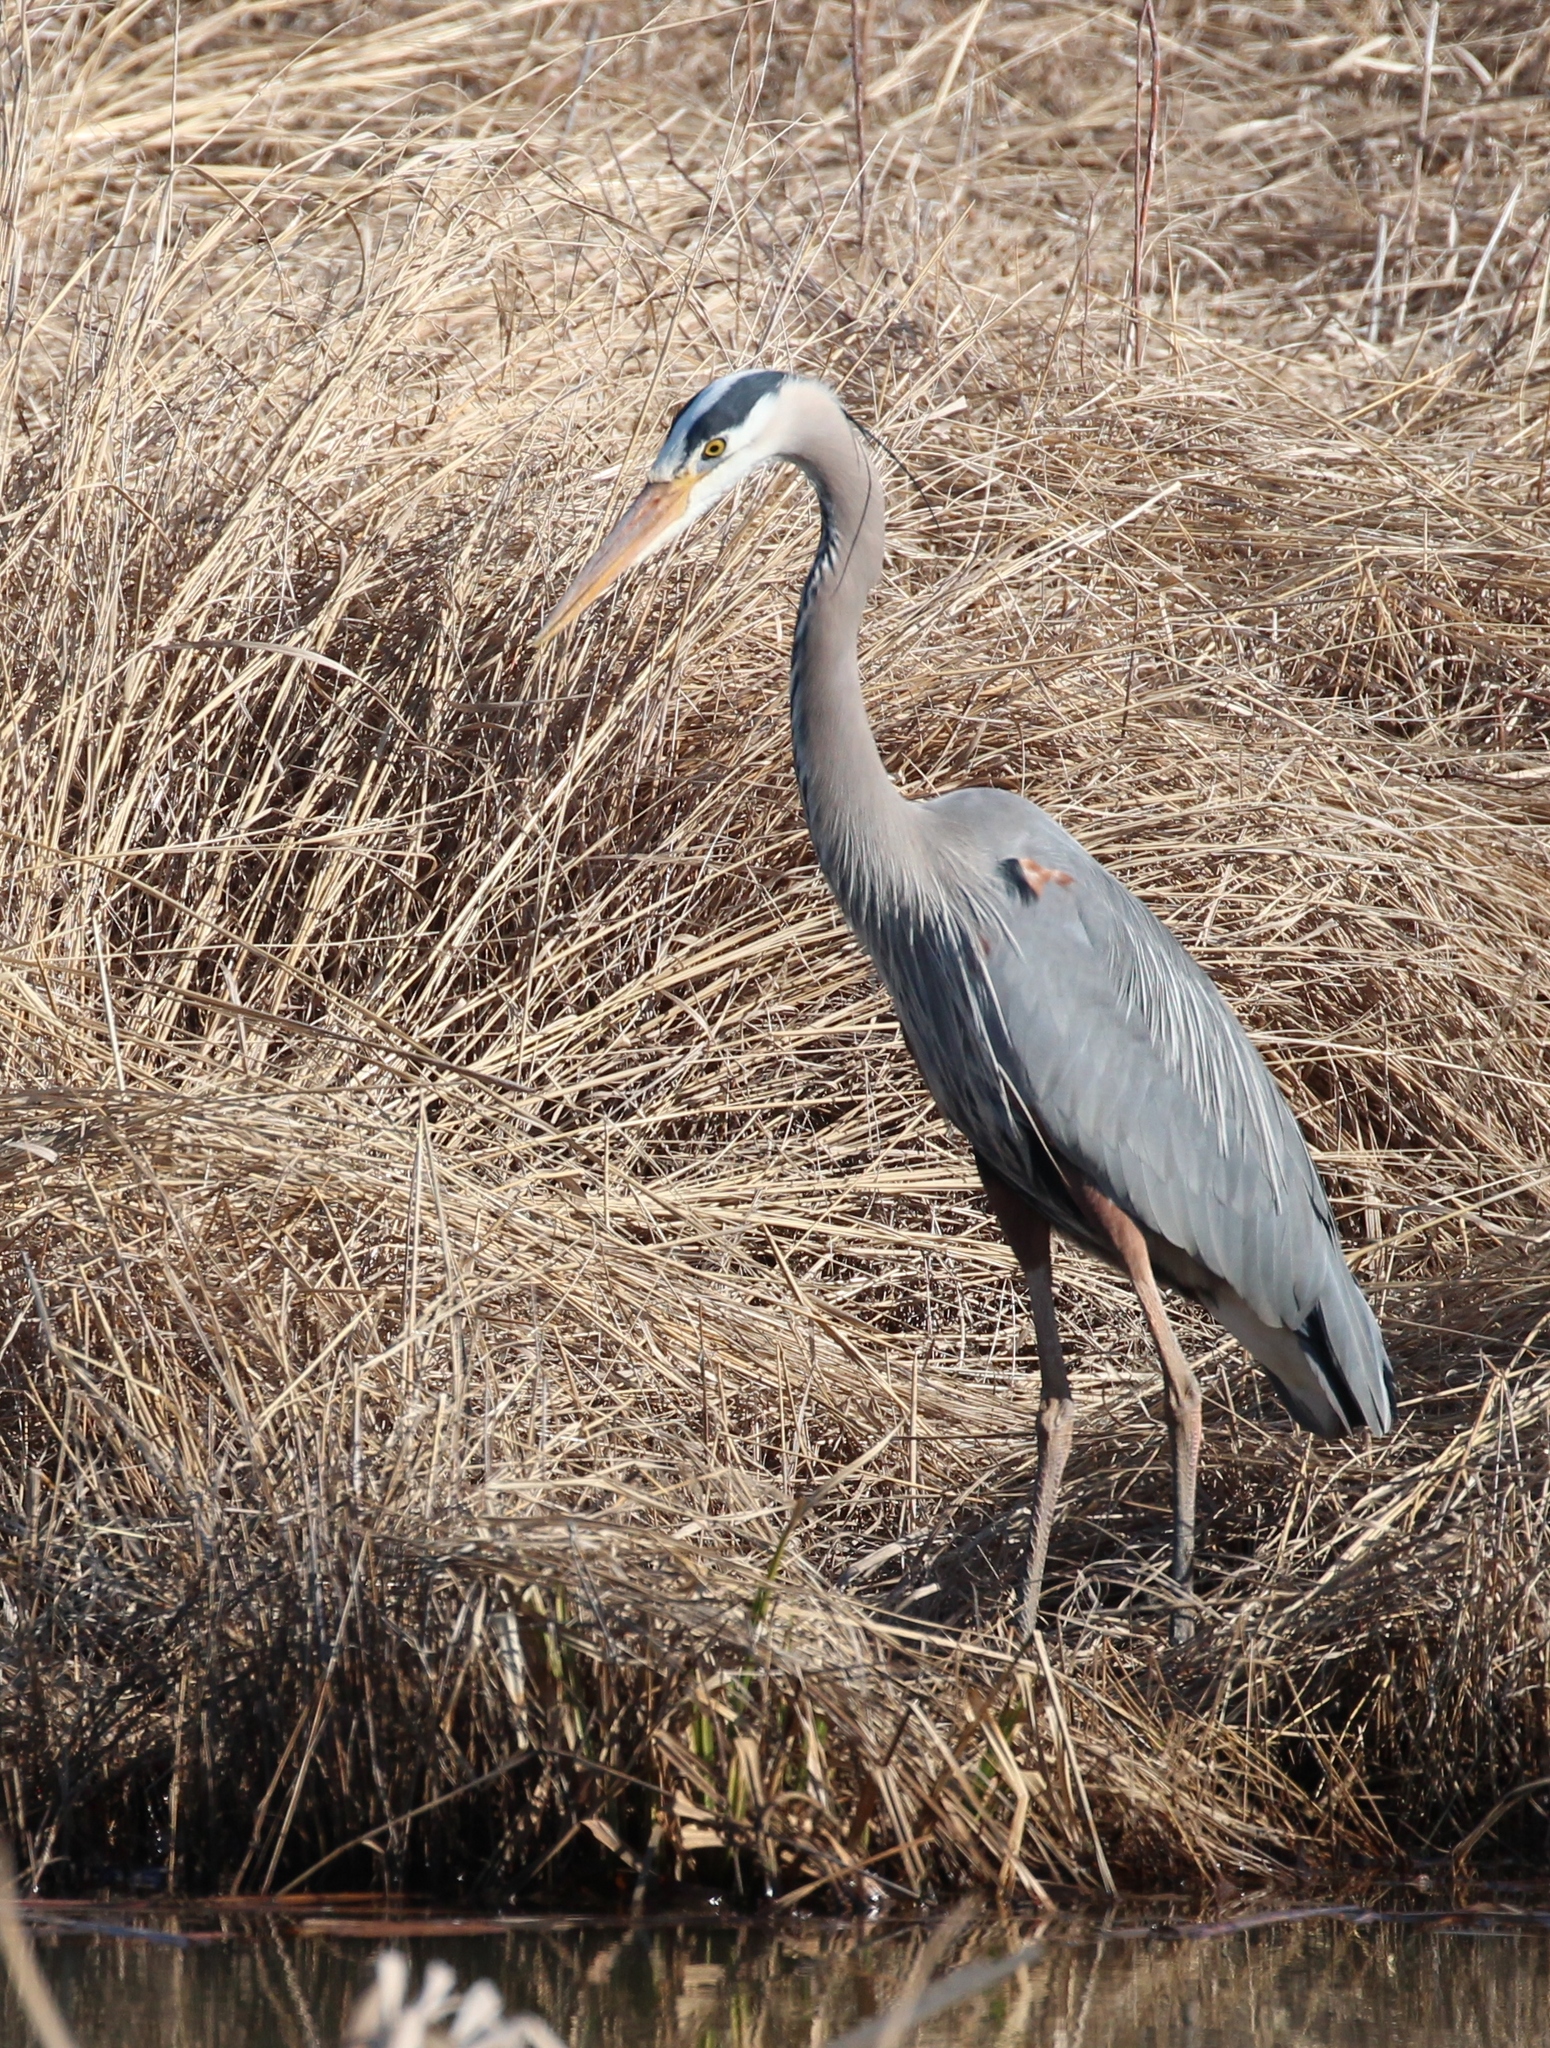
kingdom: Animalia
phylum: Chordata
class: Aves
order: Pelecaniformes
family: Ardeidae
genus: Ardea
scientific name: Ardea herodias
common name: Great blue heron
